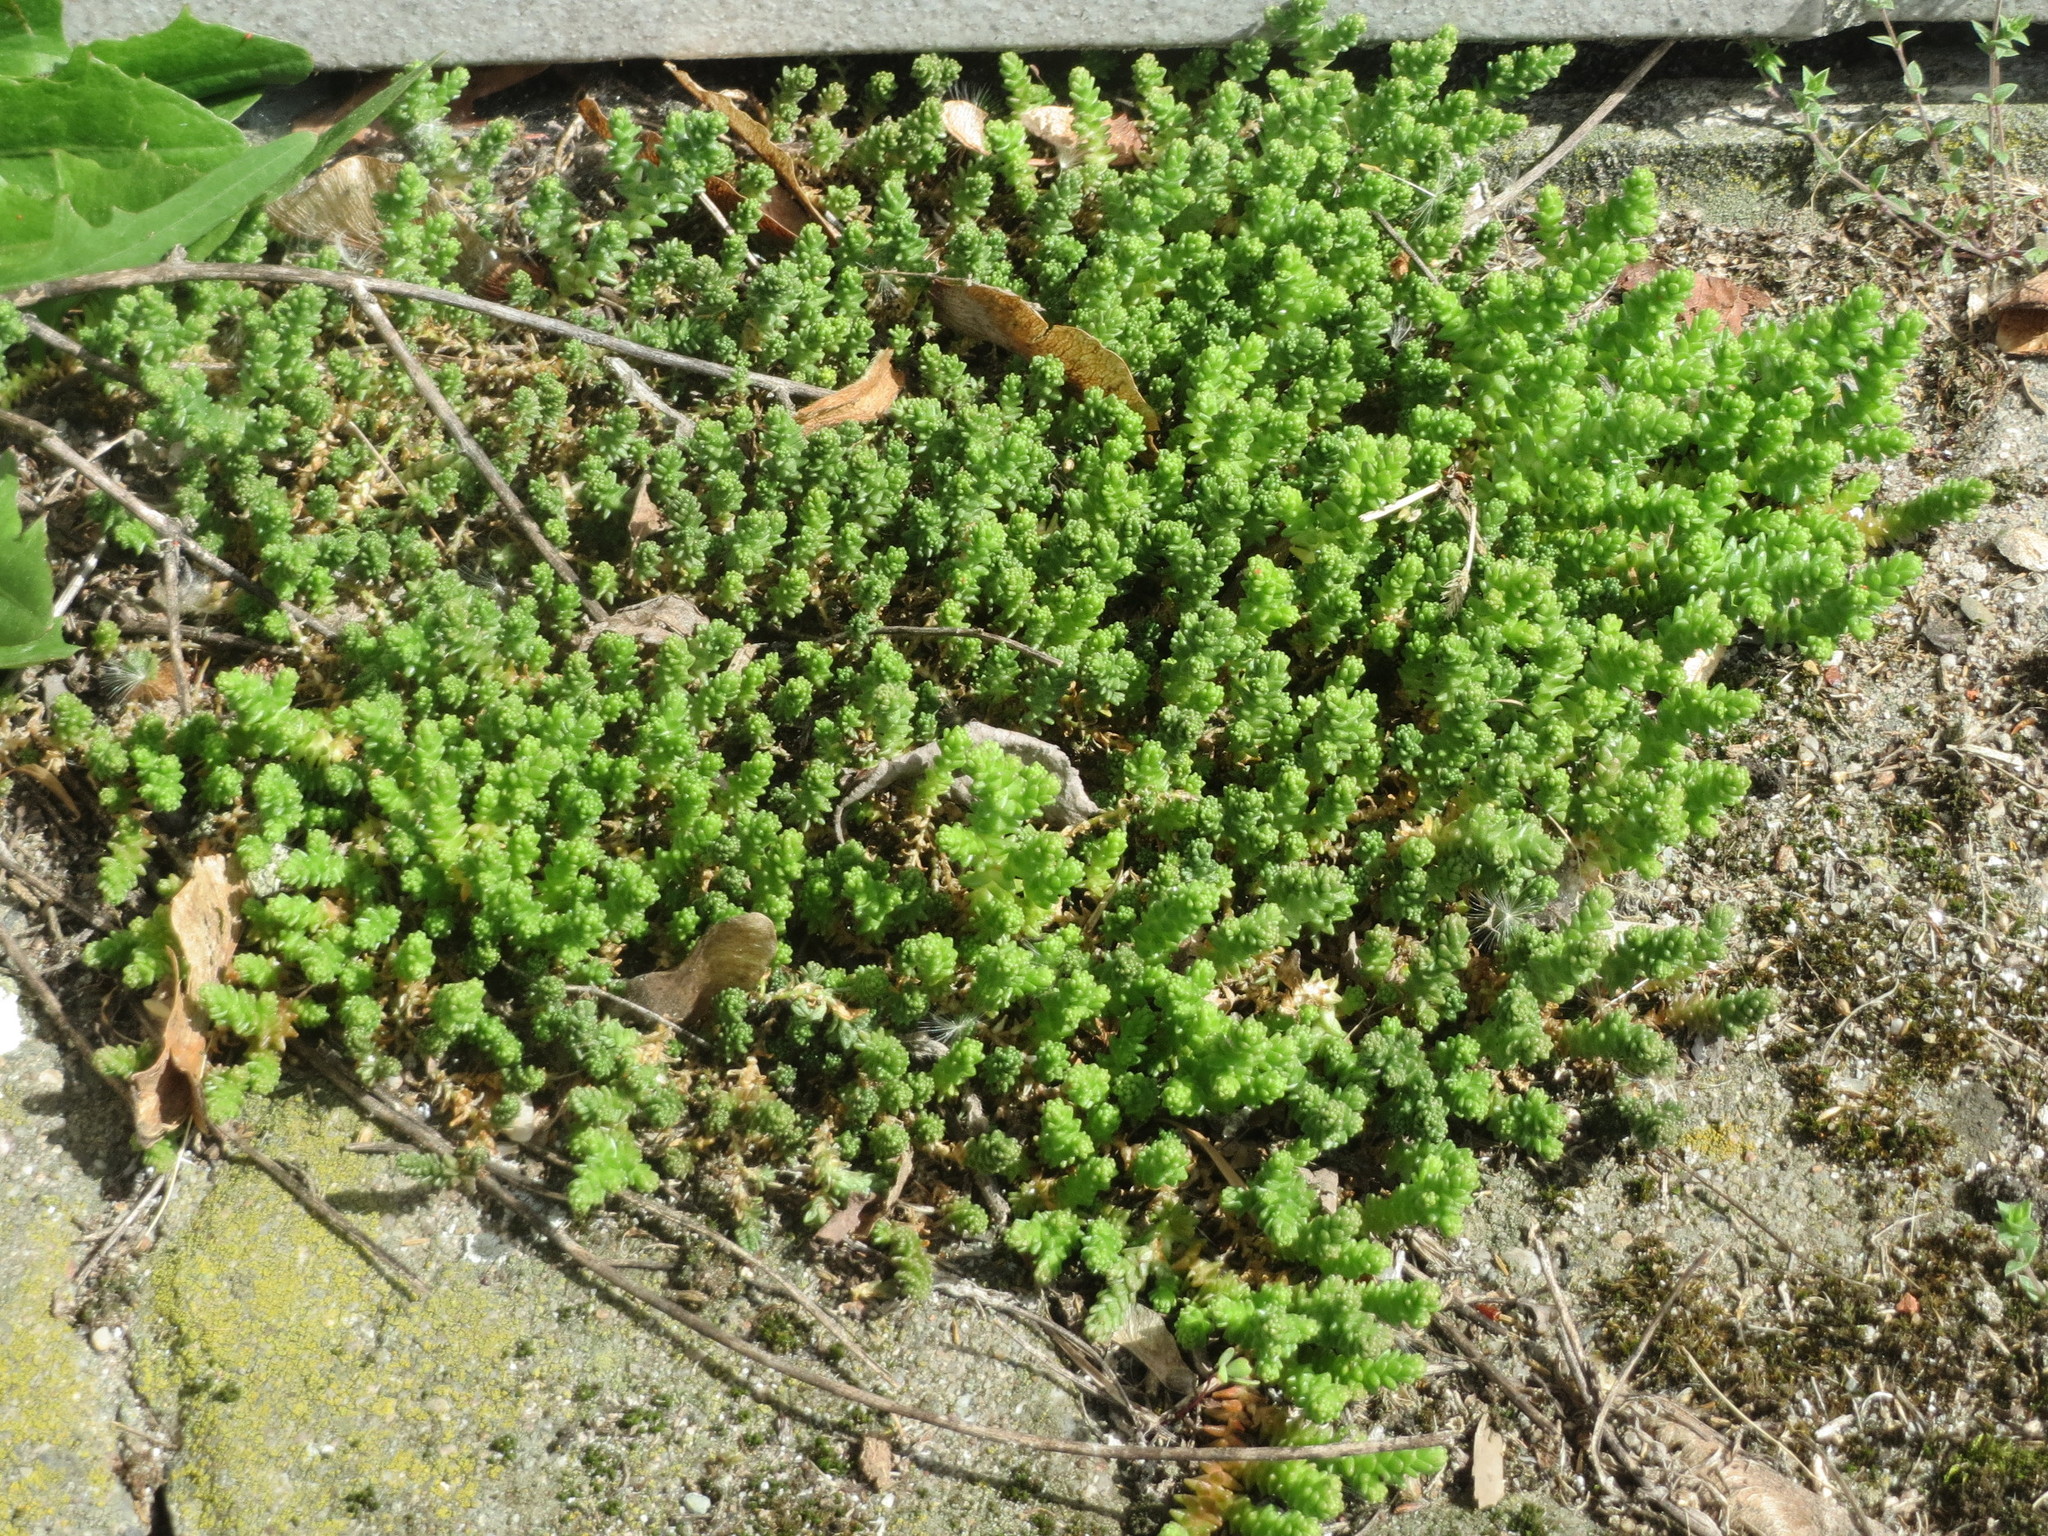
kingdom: Plantae
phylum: Tracheophyta
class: Magnoliopsida
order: Saxifragales
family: Crassulaceae
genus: Sedum
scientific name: Sedum acre
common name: Biting stonecrop
